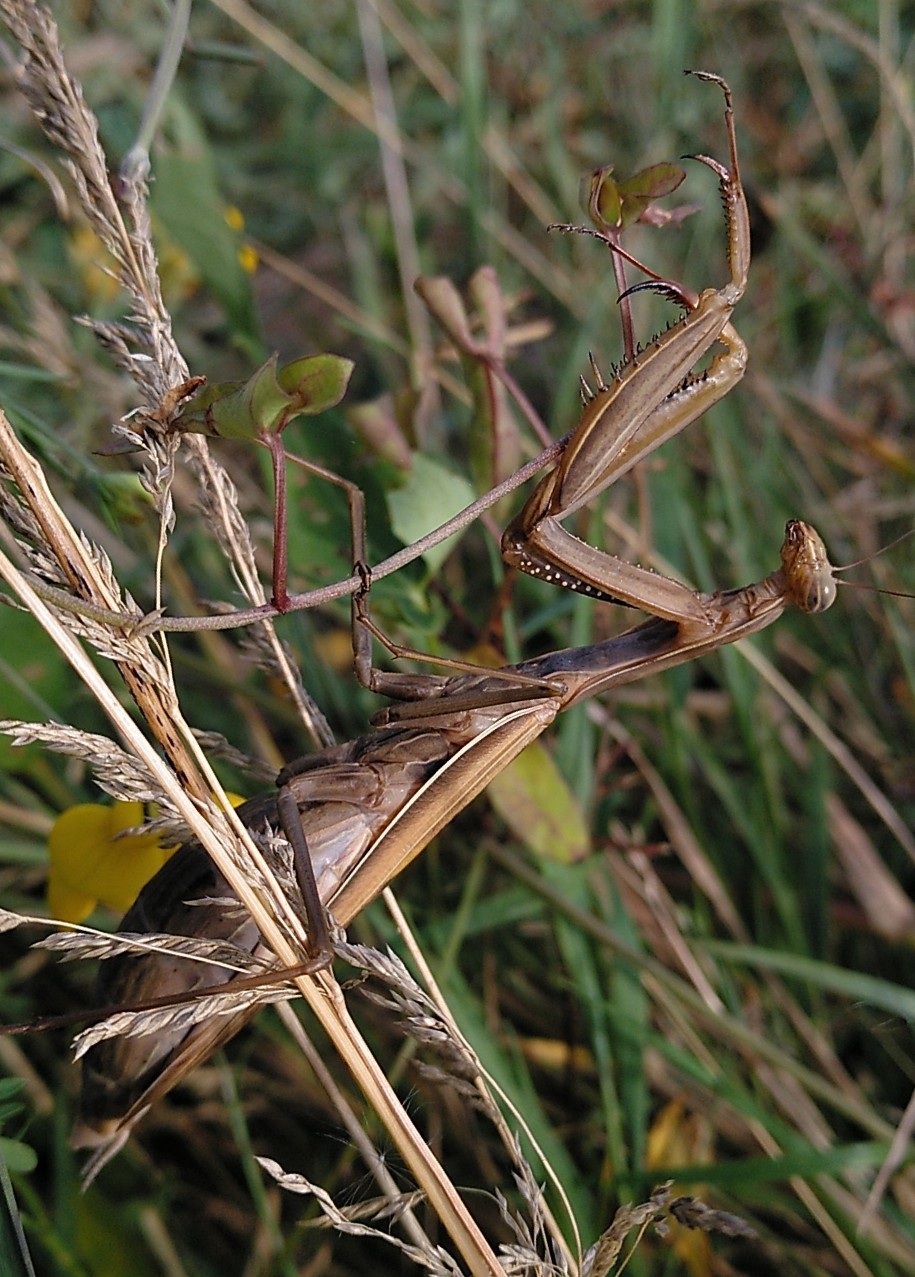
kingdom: Animalia
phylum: Arthropoda
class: Insecta
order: Mantodea
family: Mantidae
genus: Mantis
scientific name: Mantis religiosa
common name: Praying mantis
